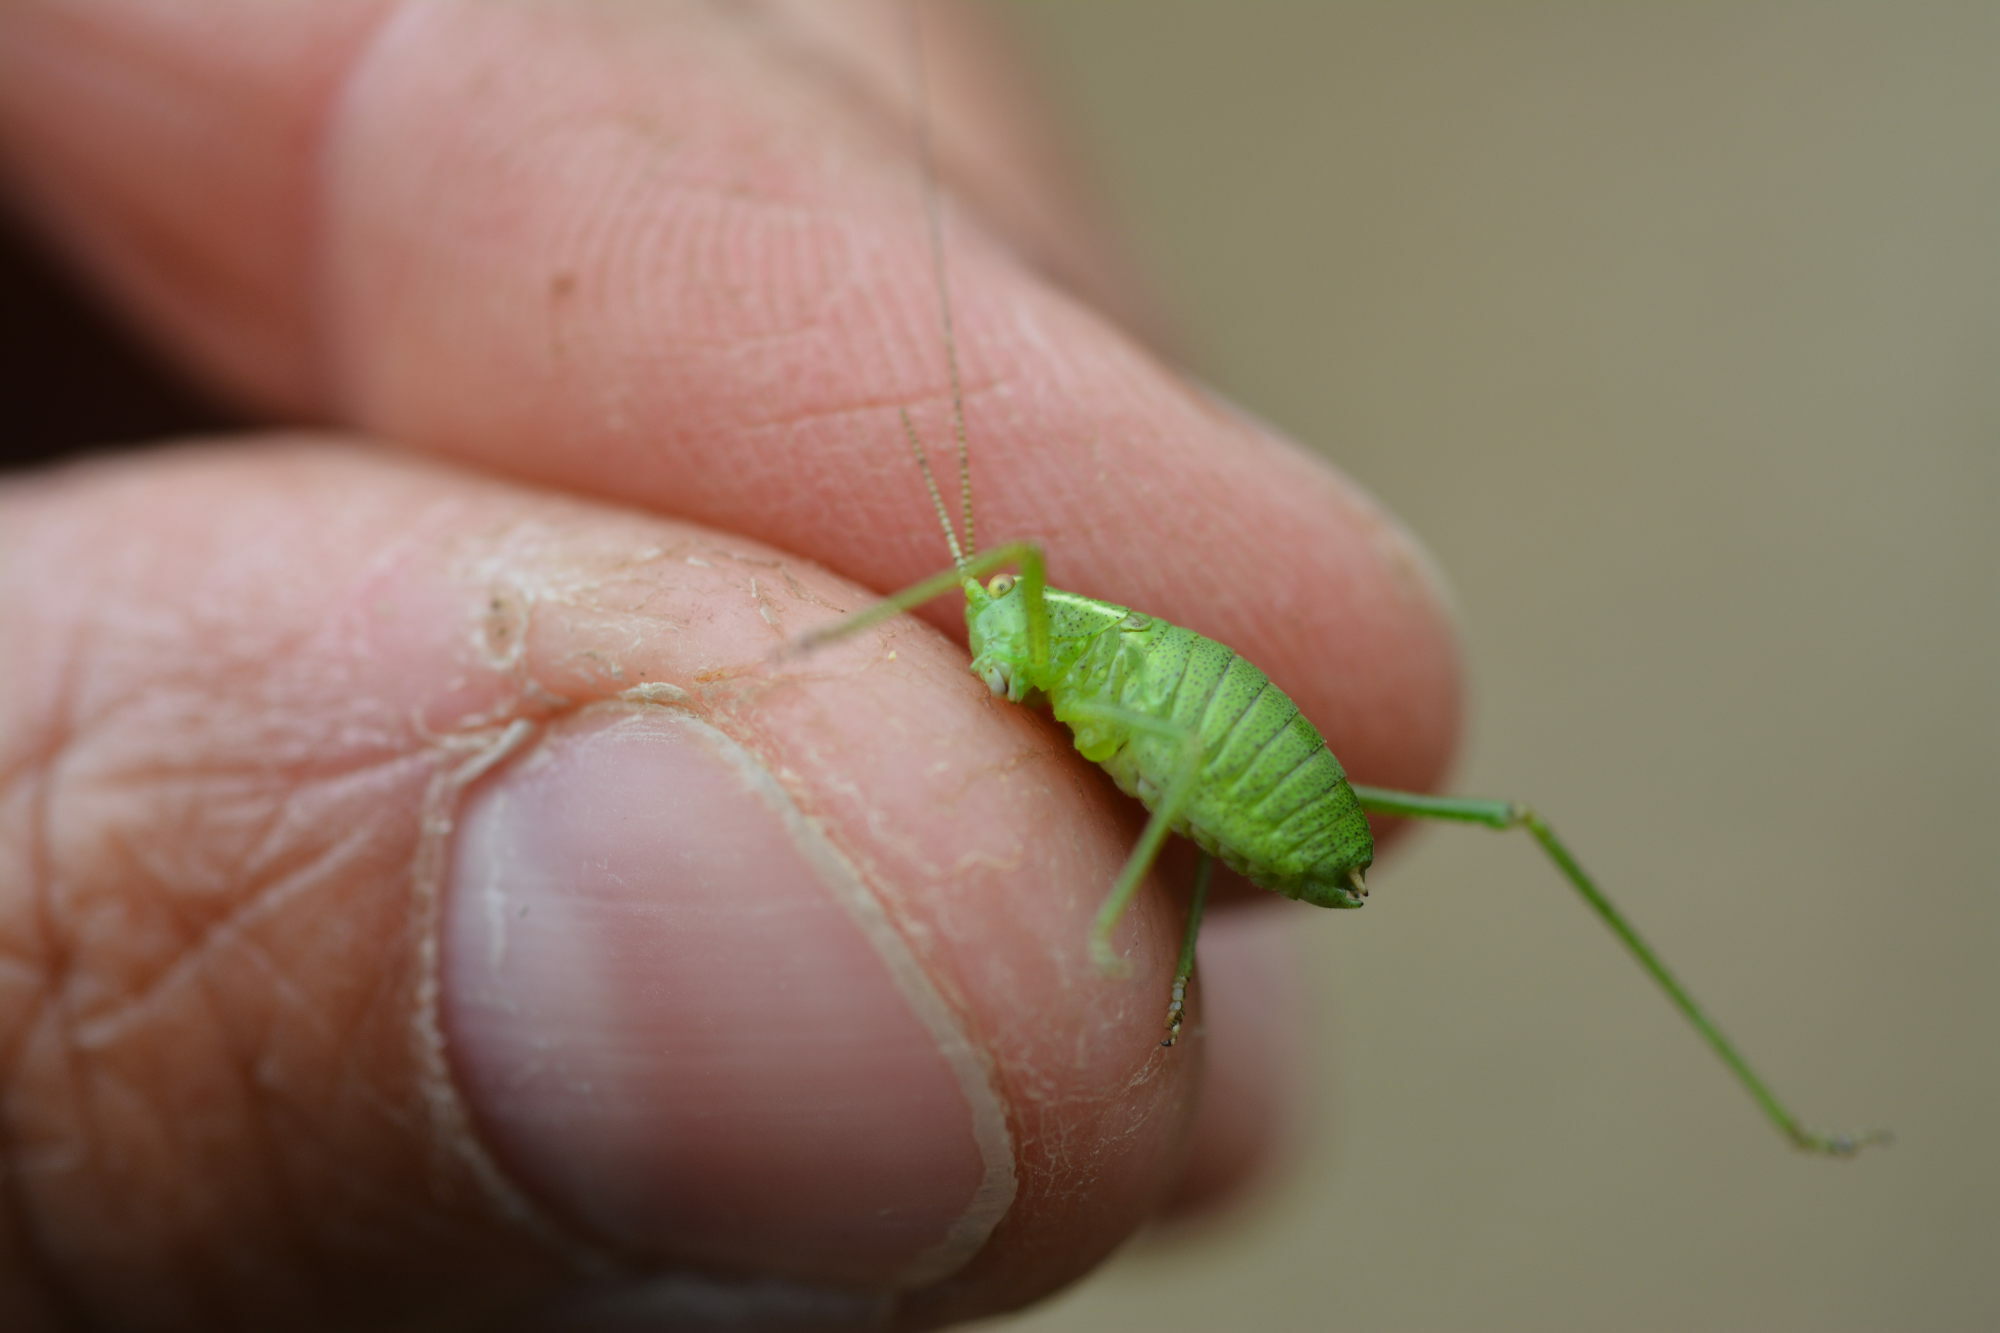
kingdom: Animalia
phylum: Arthropoda
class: Insecta
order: Orthoptera
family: Tettigoniidae
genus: Leptophyes
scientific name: Leptophyes punctatissima
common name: Speckled bush-cricket
